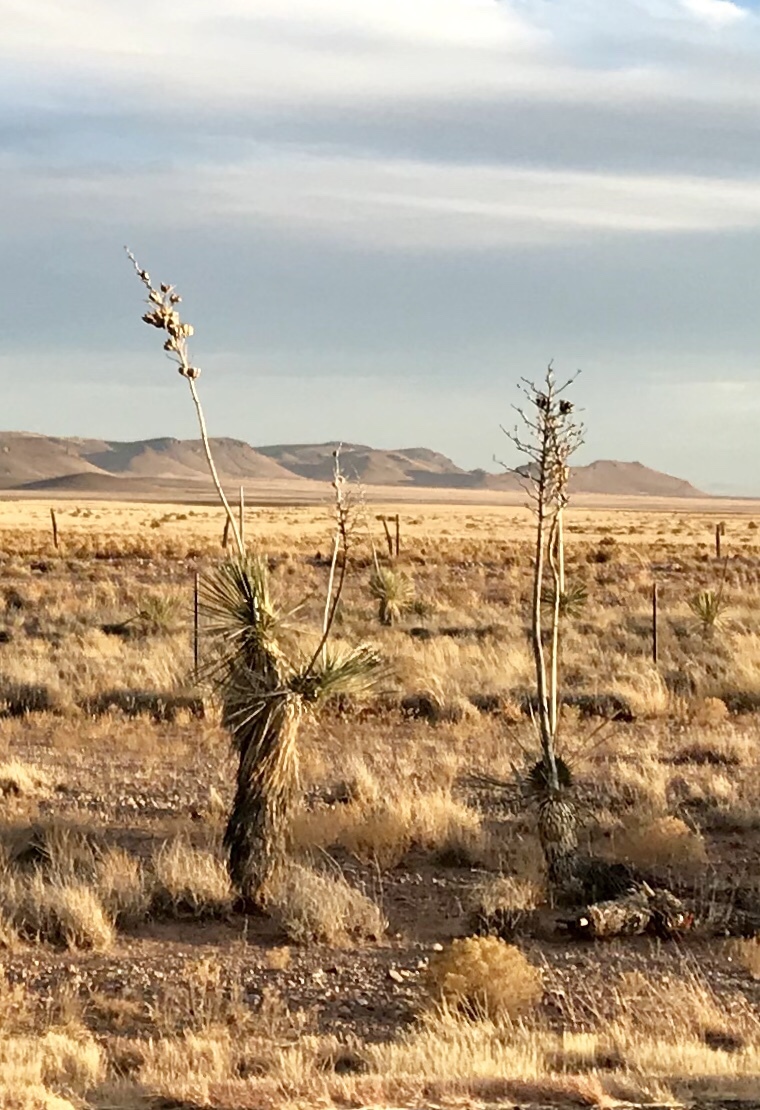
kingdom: Plantae
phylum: Tracheophyta
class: Liliopsida
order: Asparagales
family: Asparagaceae
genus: Yucca
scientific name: Yucca elata
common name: Palmella
